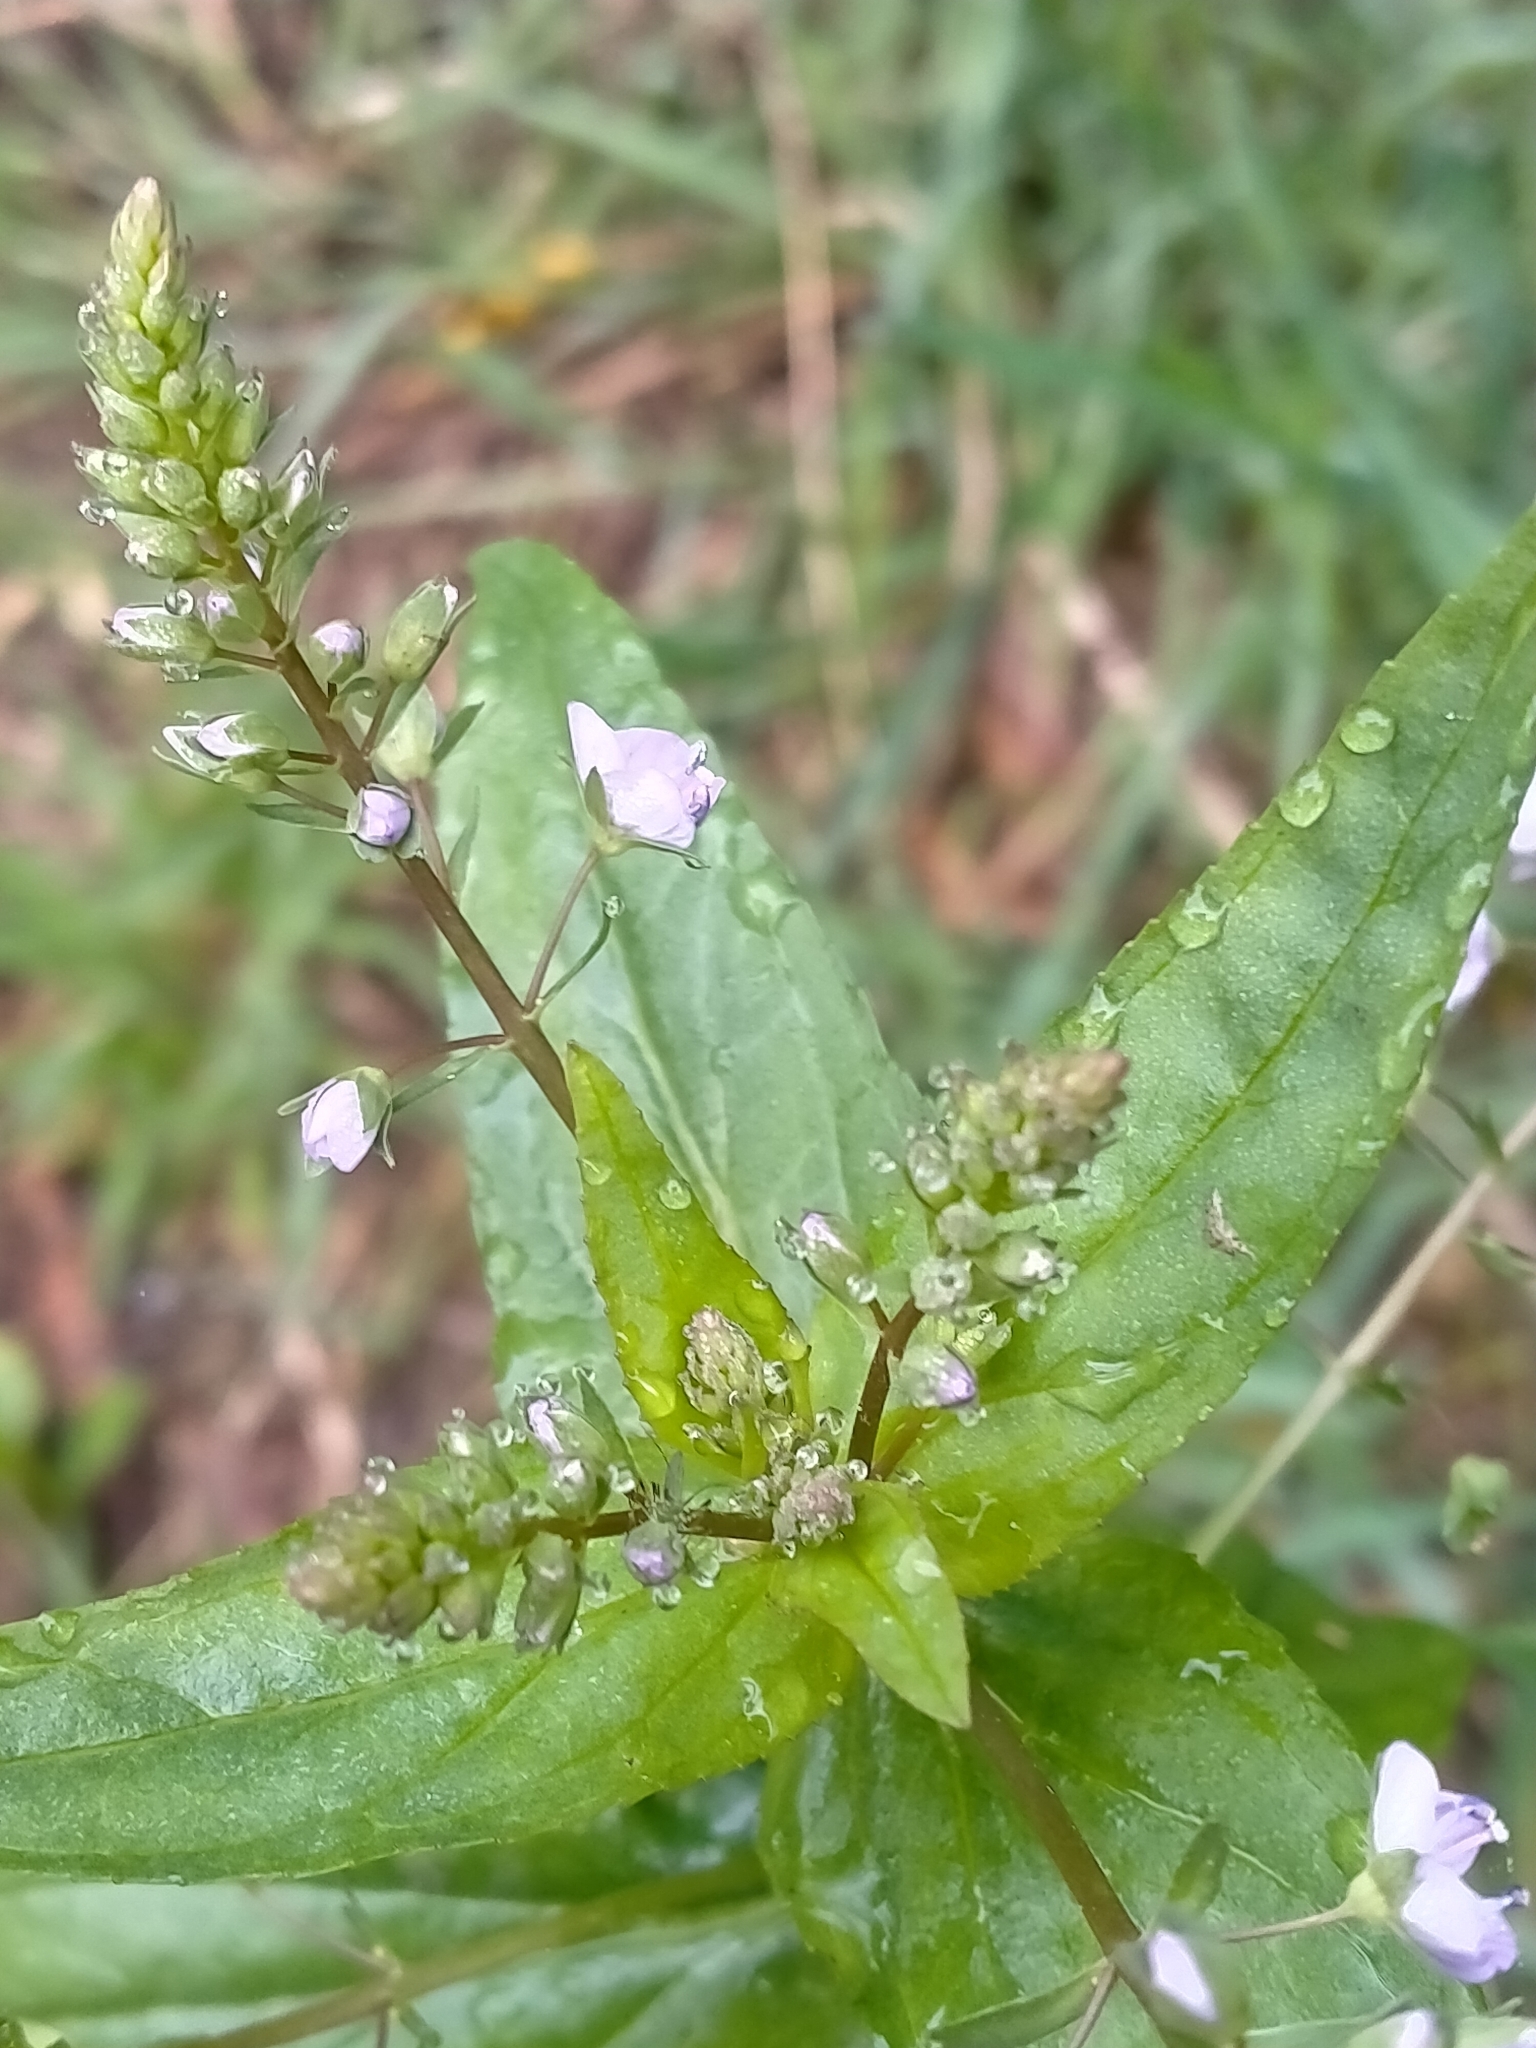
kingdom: Plantae
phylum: Tracheophyta
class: Magnoliopsida
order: Lamiales
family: Plantaginaceae
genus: Veronica
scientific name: Veronica anagallis-aquatica
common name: Water speedwell
